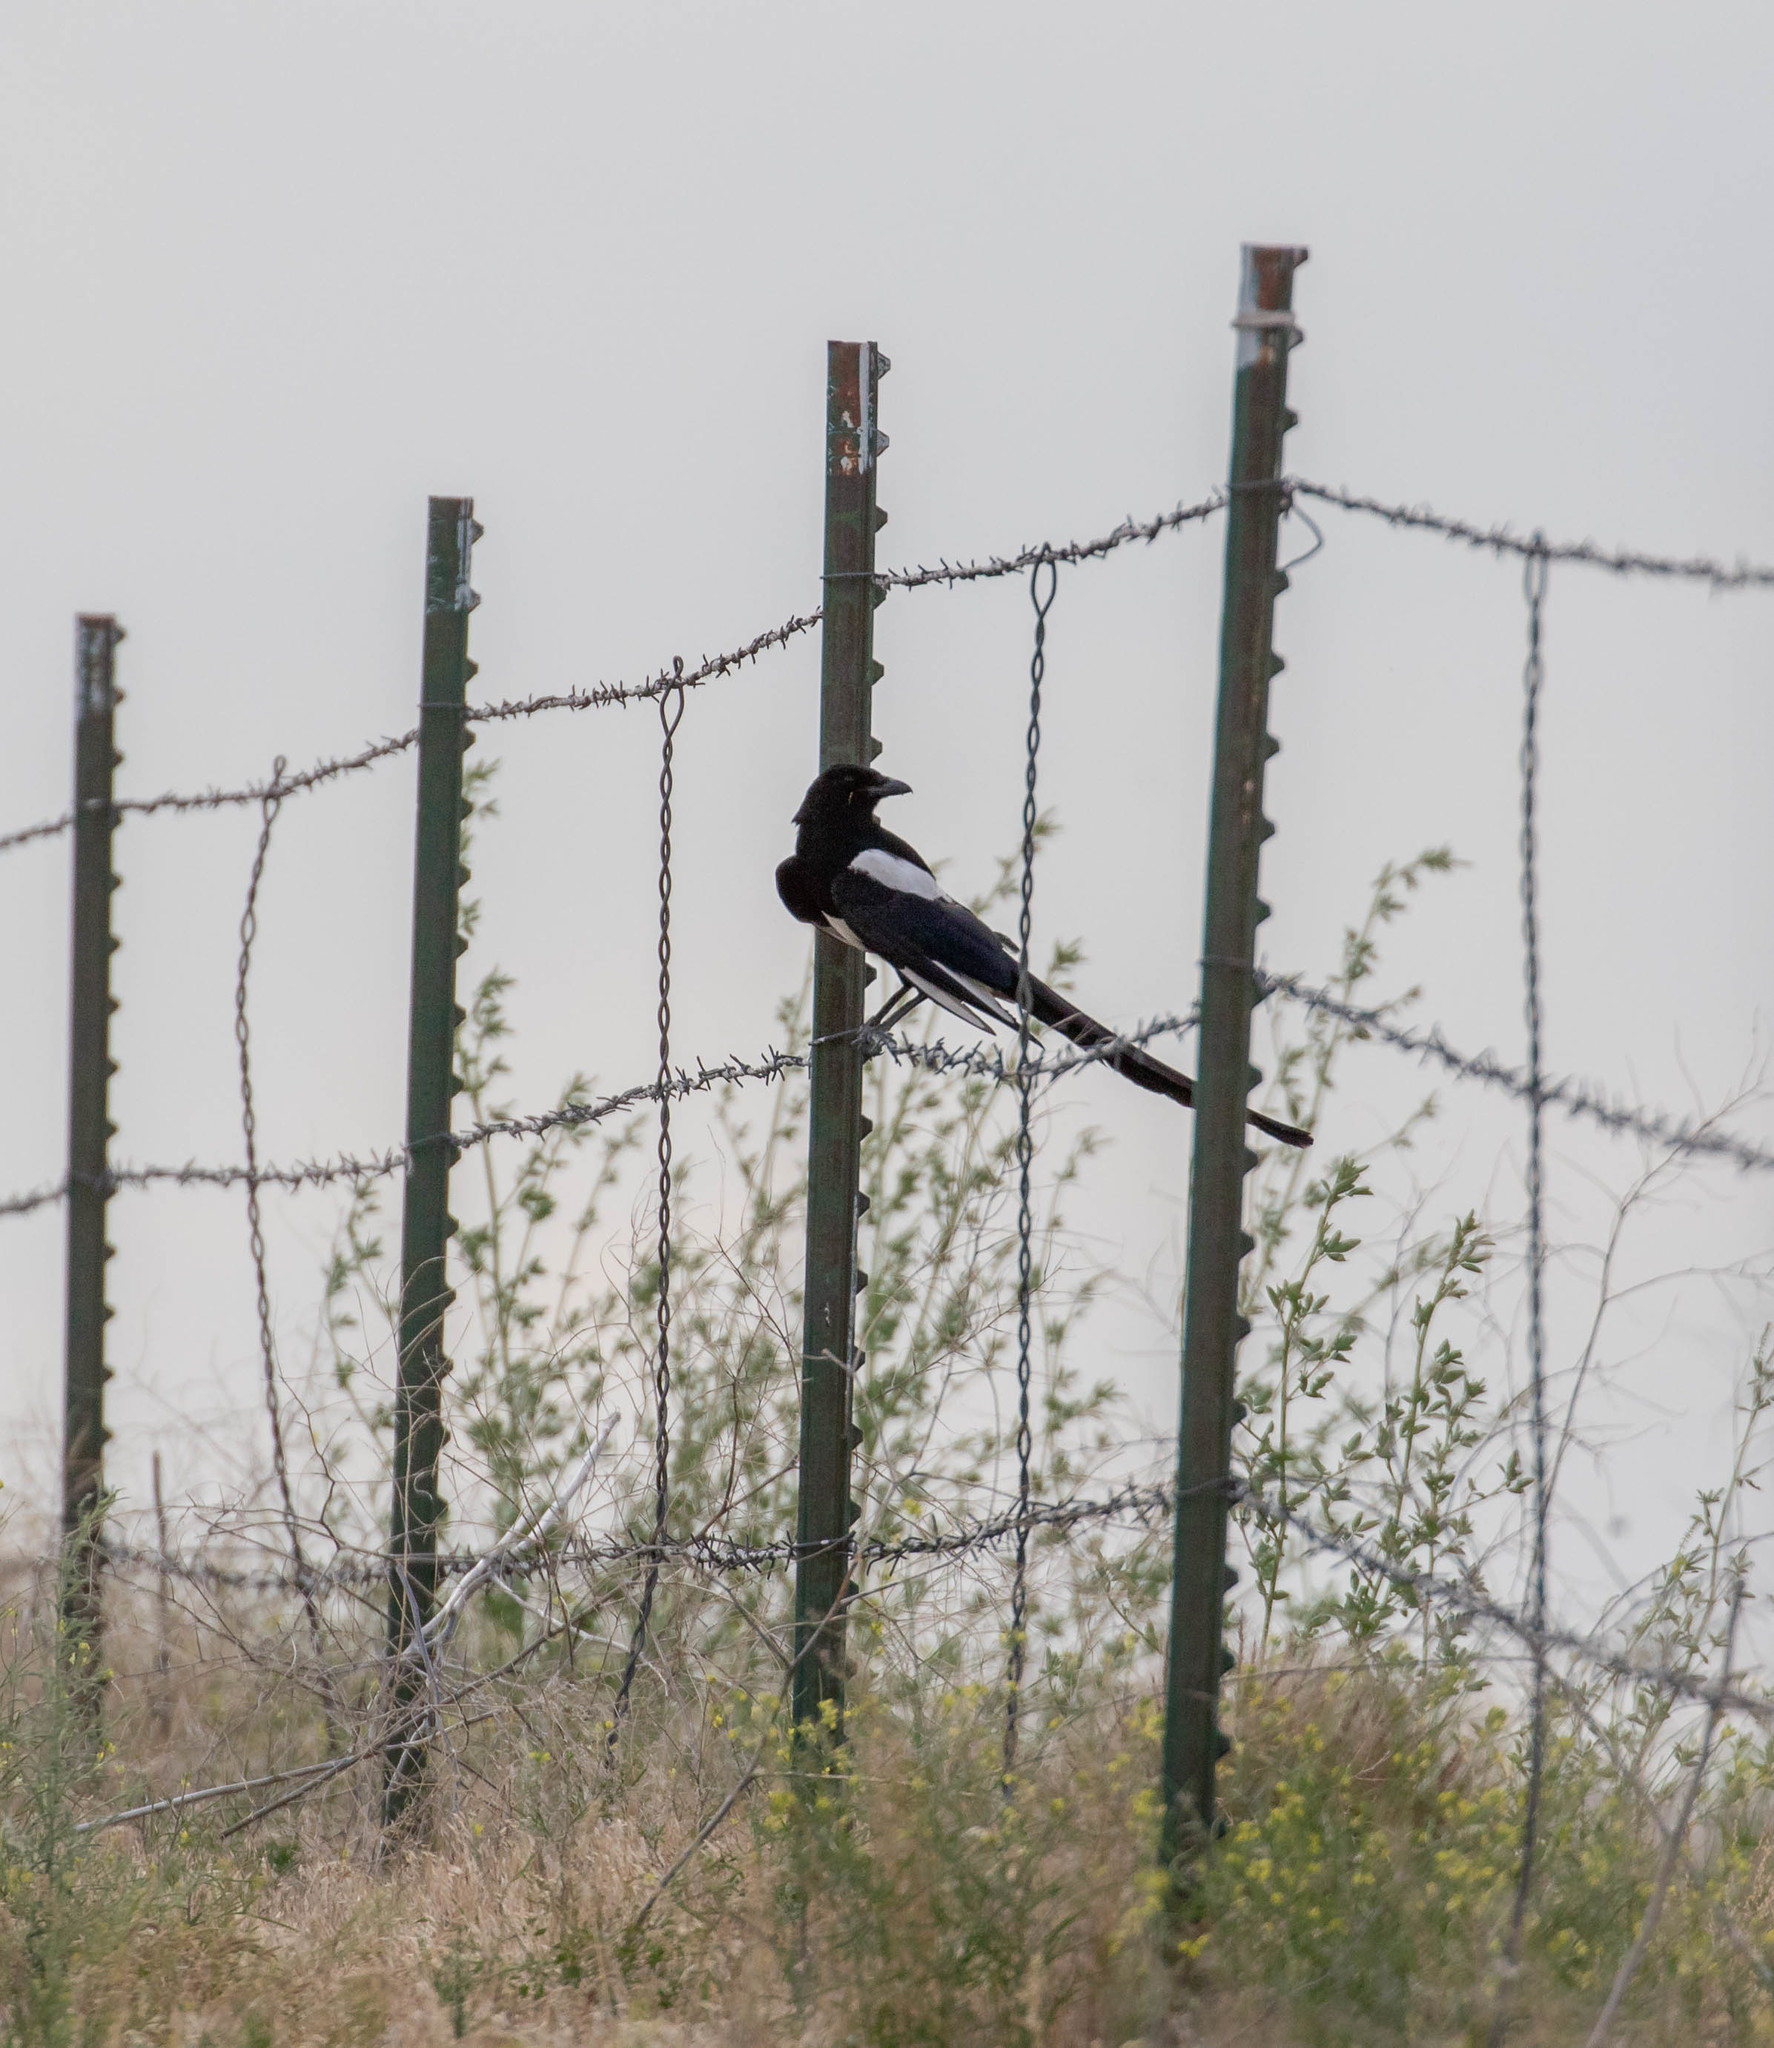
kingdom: Animalia
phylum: Chordata
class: Aves
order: Passeriformes
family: Corvidae
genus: Pica
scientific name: Pica hudsonia
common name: Black-billed magpie
